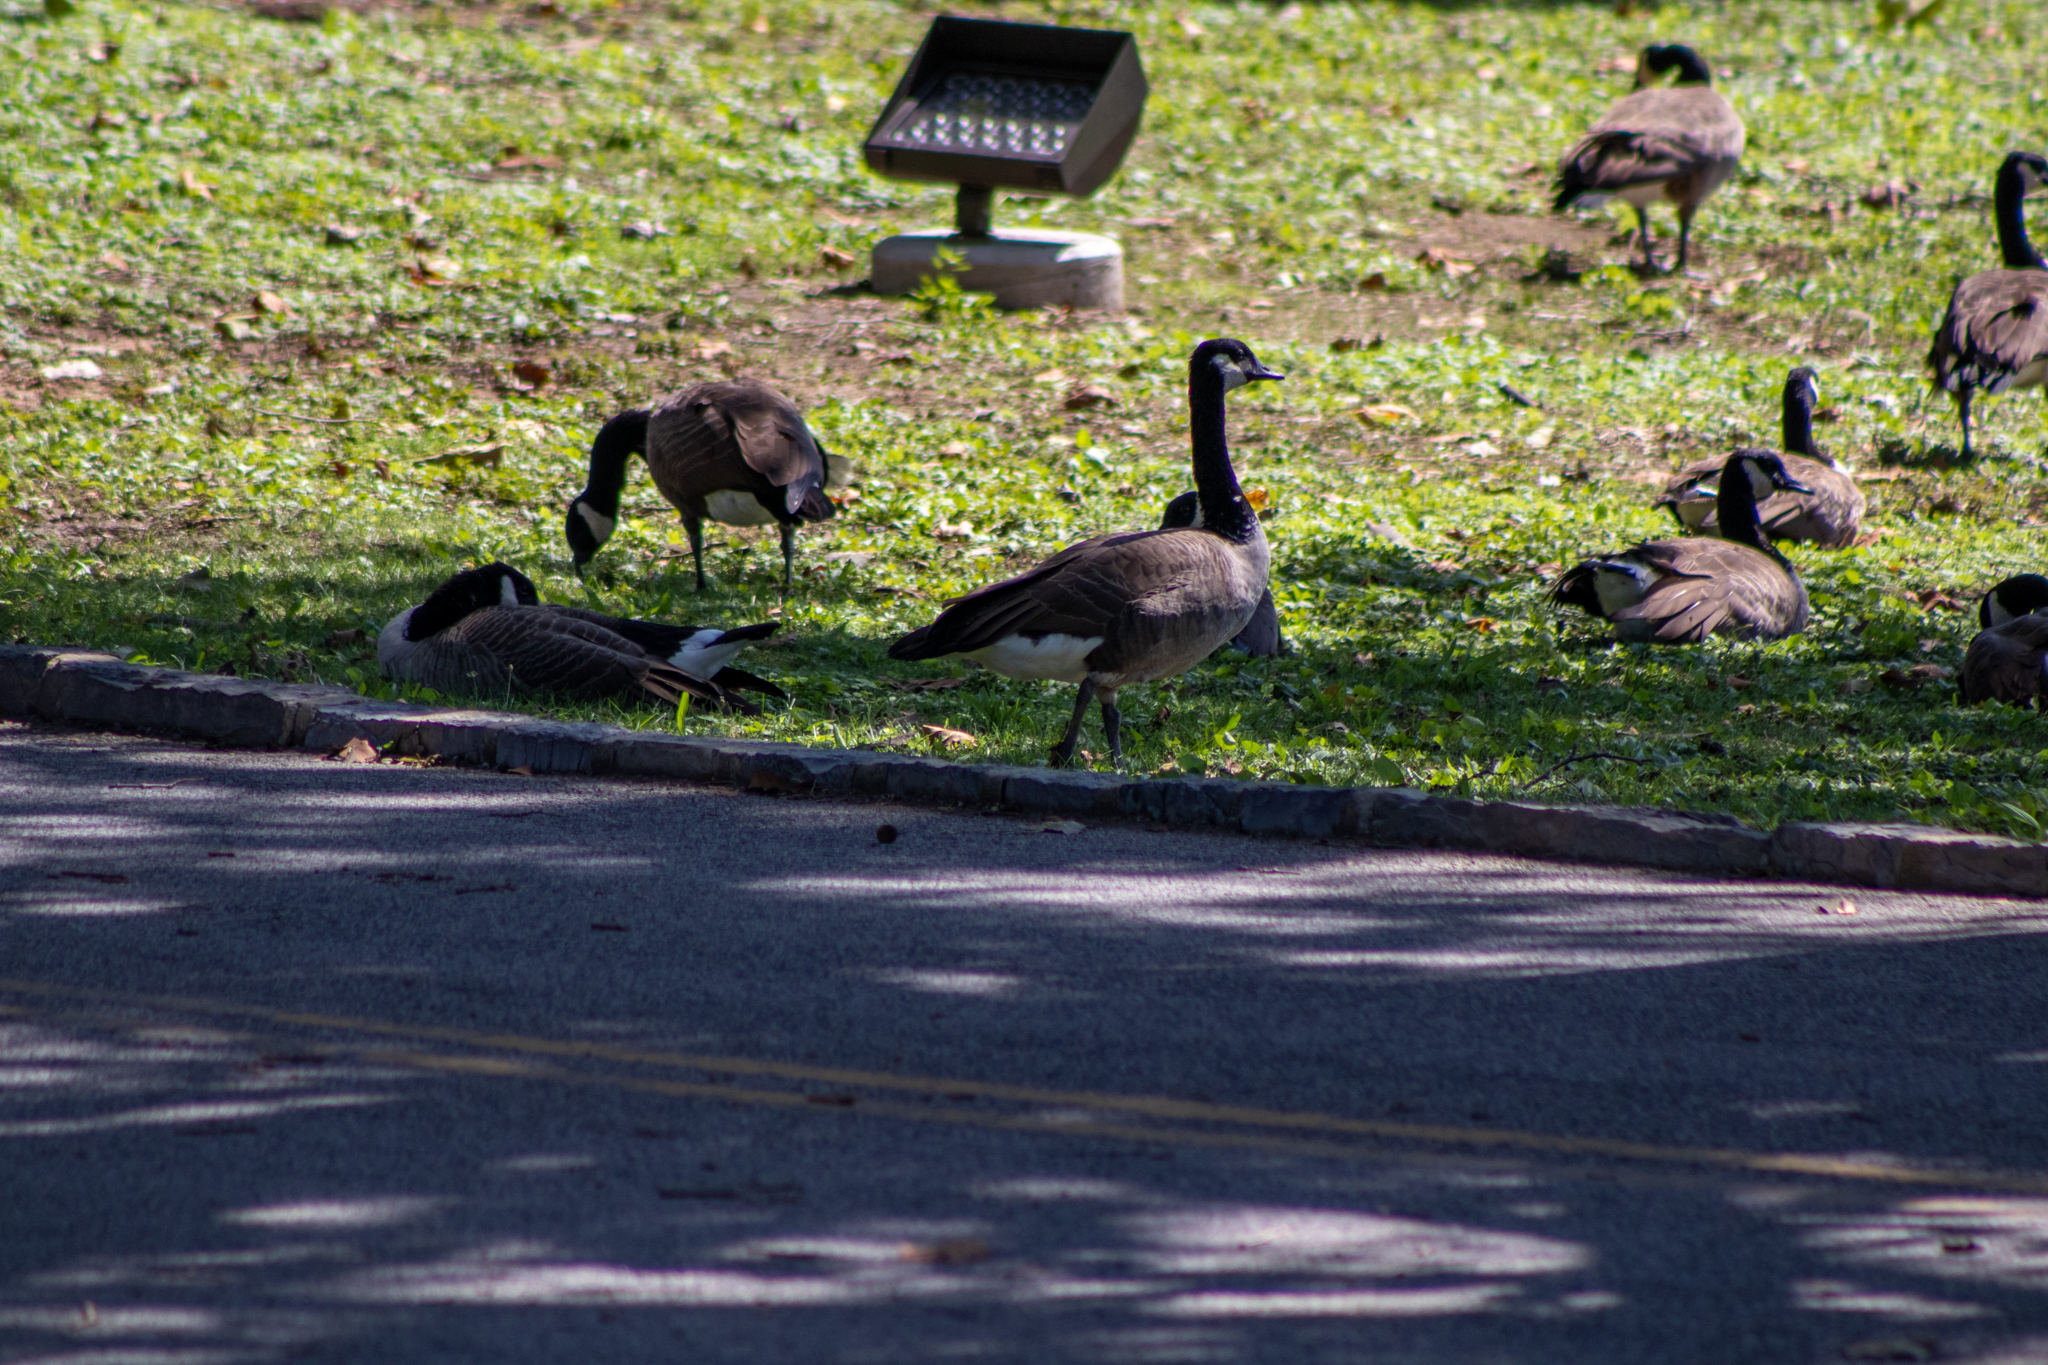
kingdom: Animalia
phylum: Chordata
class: Aves
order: Anseriformes
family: Anatidae
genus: Branta
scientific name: Branta canadensis
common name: Canada goose
